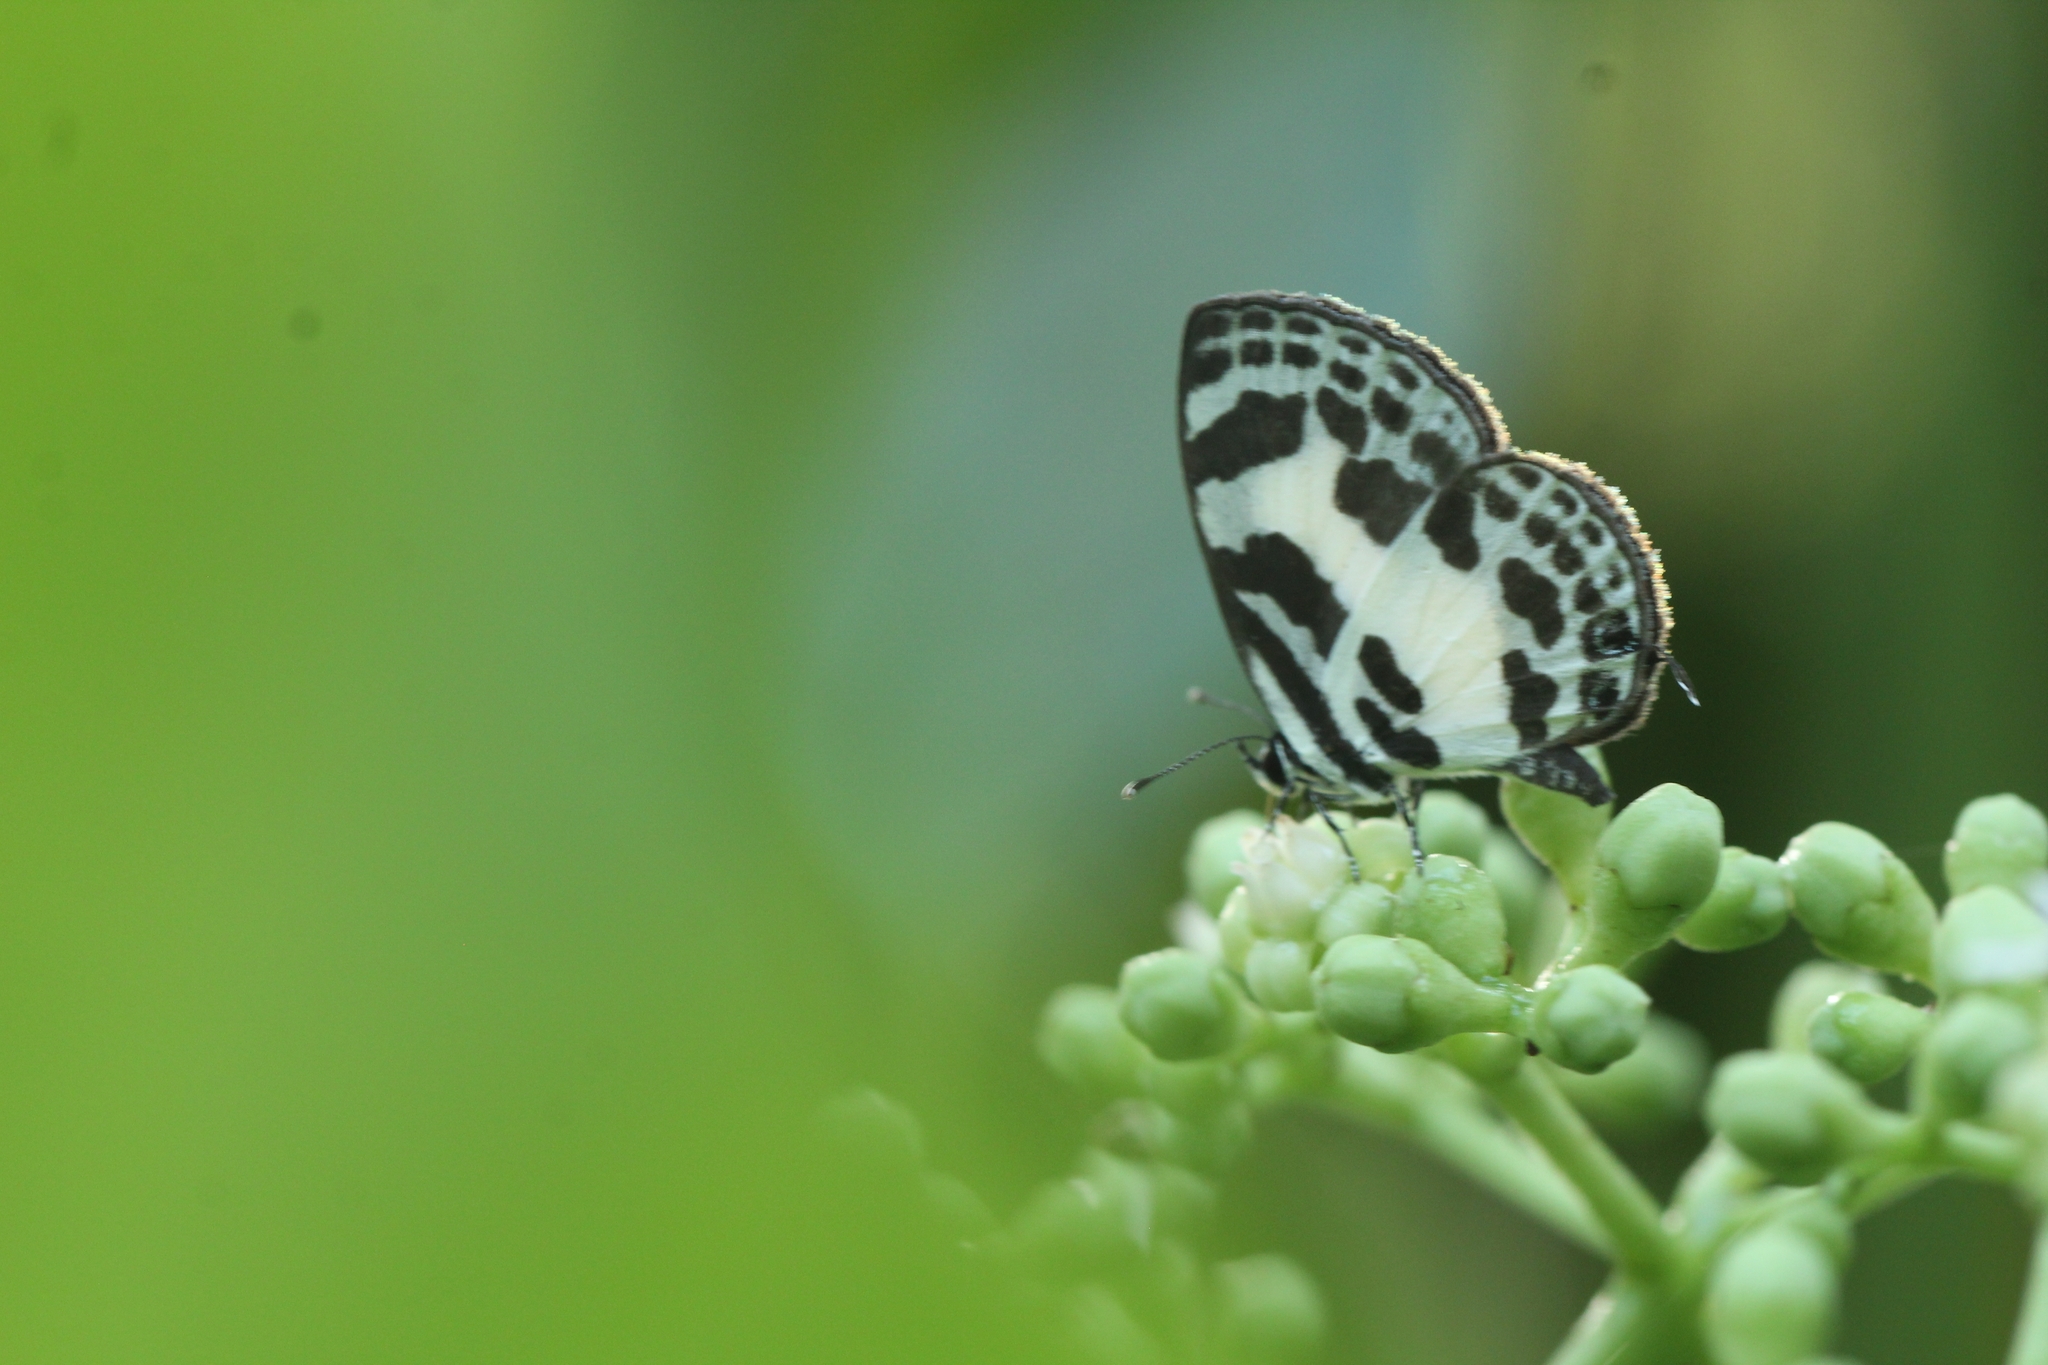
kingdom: Animalia
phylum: Arthropoda
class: Insecta
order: Lepidoptera
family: Lycaenidae
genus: Discolampa
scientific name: Discolampa ethion
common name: Banded blue pierrot
